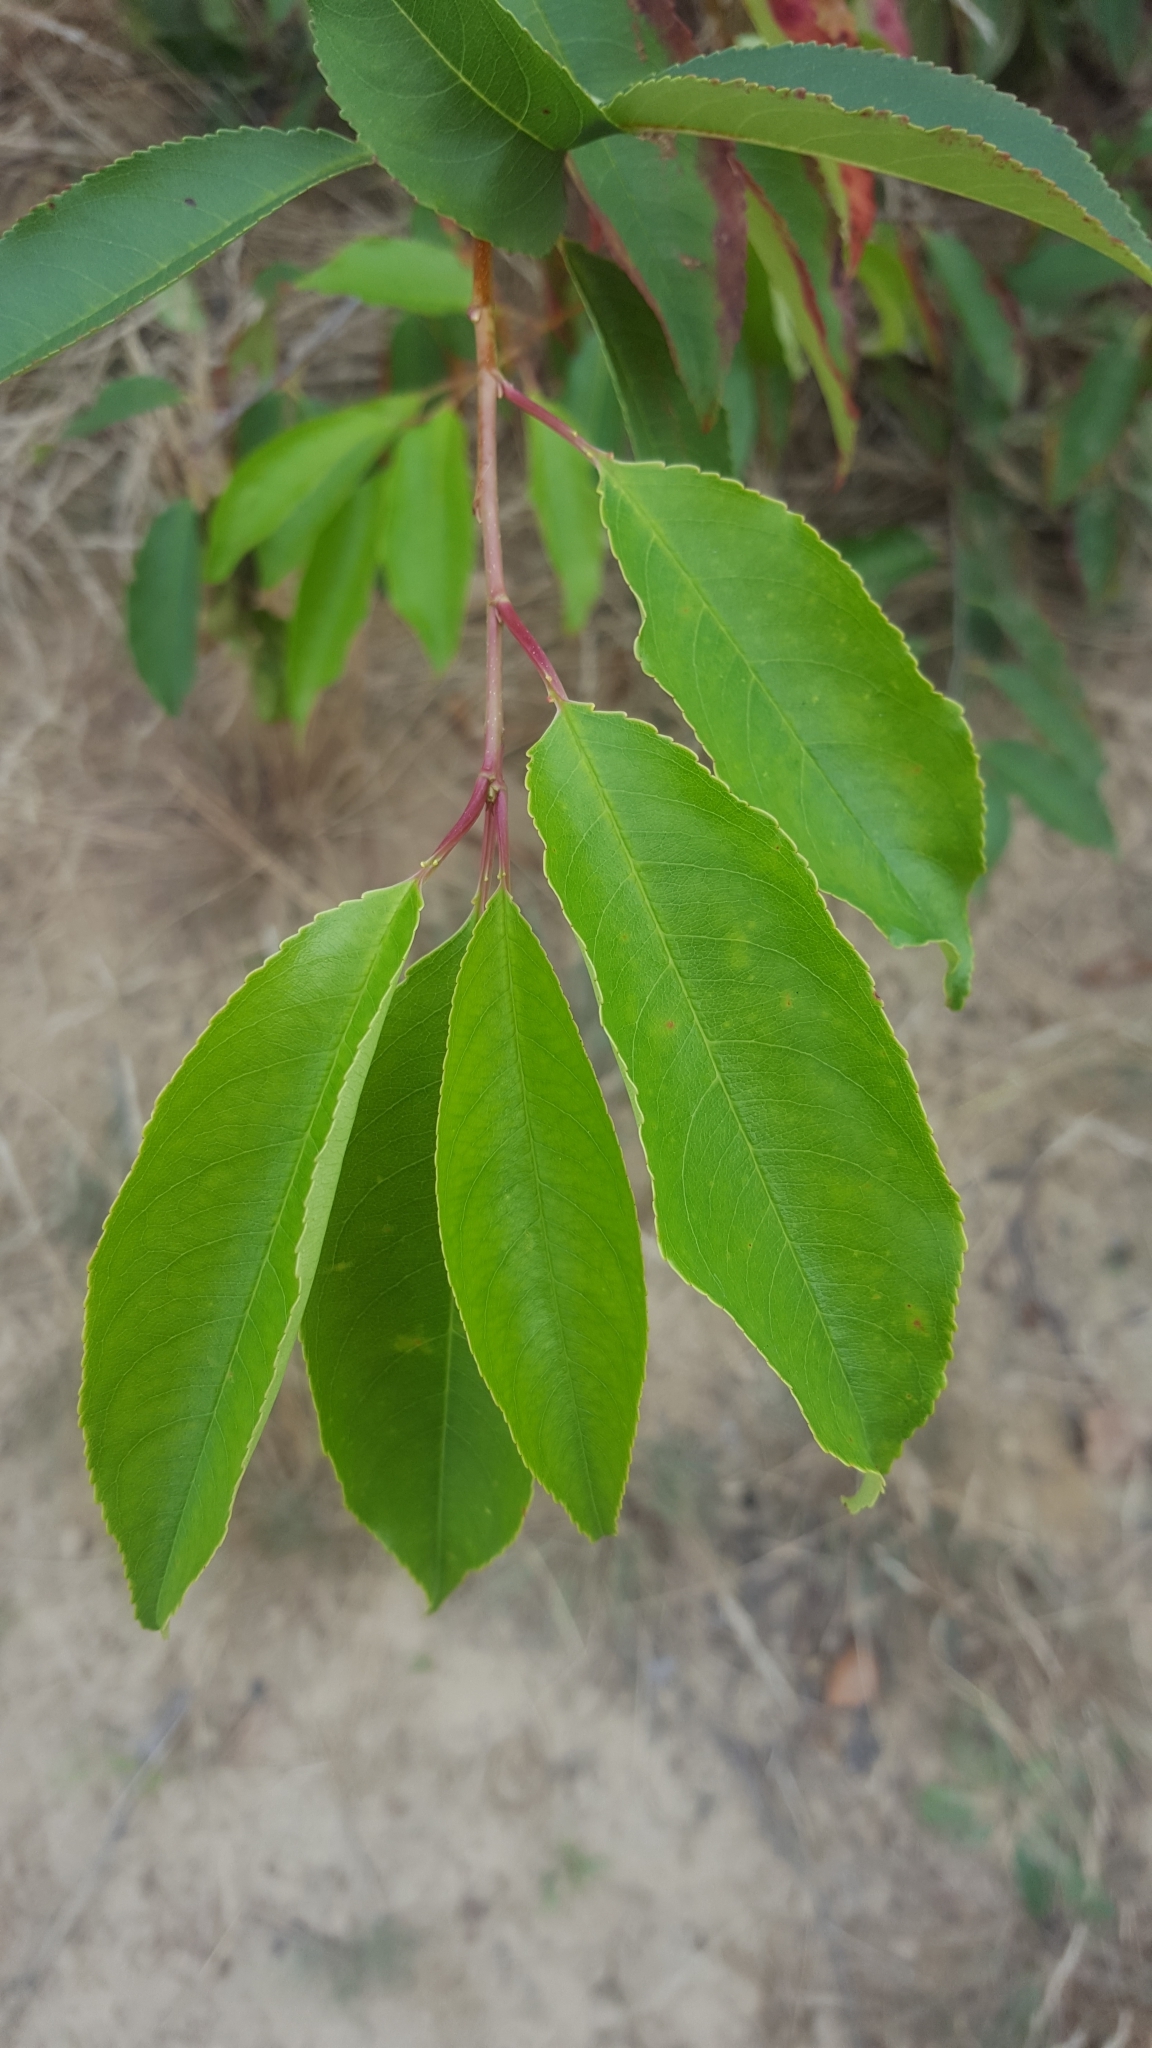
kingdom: Plantae
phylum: Tracheophyta
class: Magnoliopsida
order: Rosales
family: Rosaceae
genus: Prunus
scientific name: Prunus serotina
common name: Black cherry
